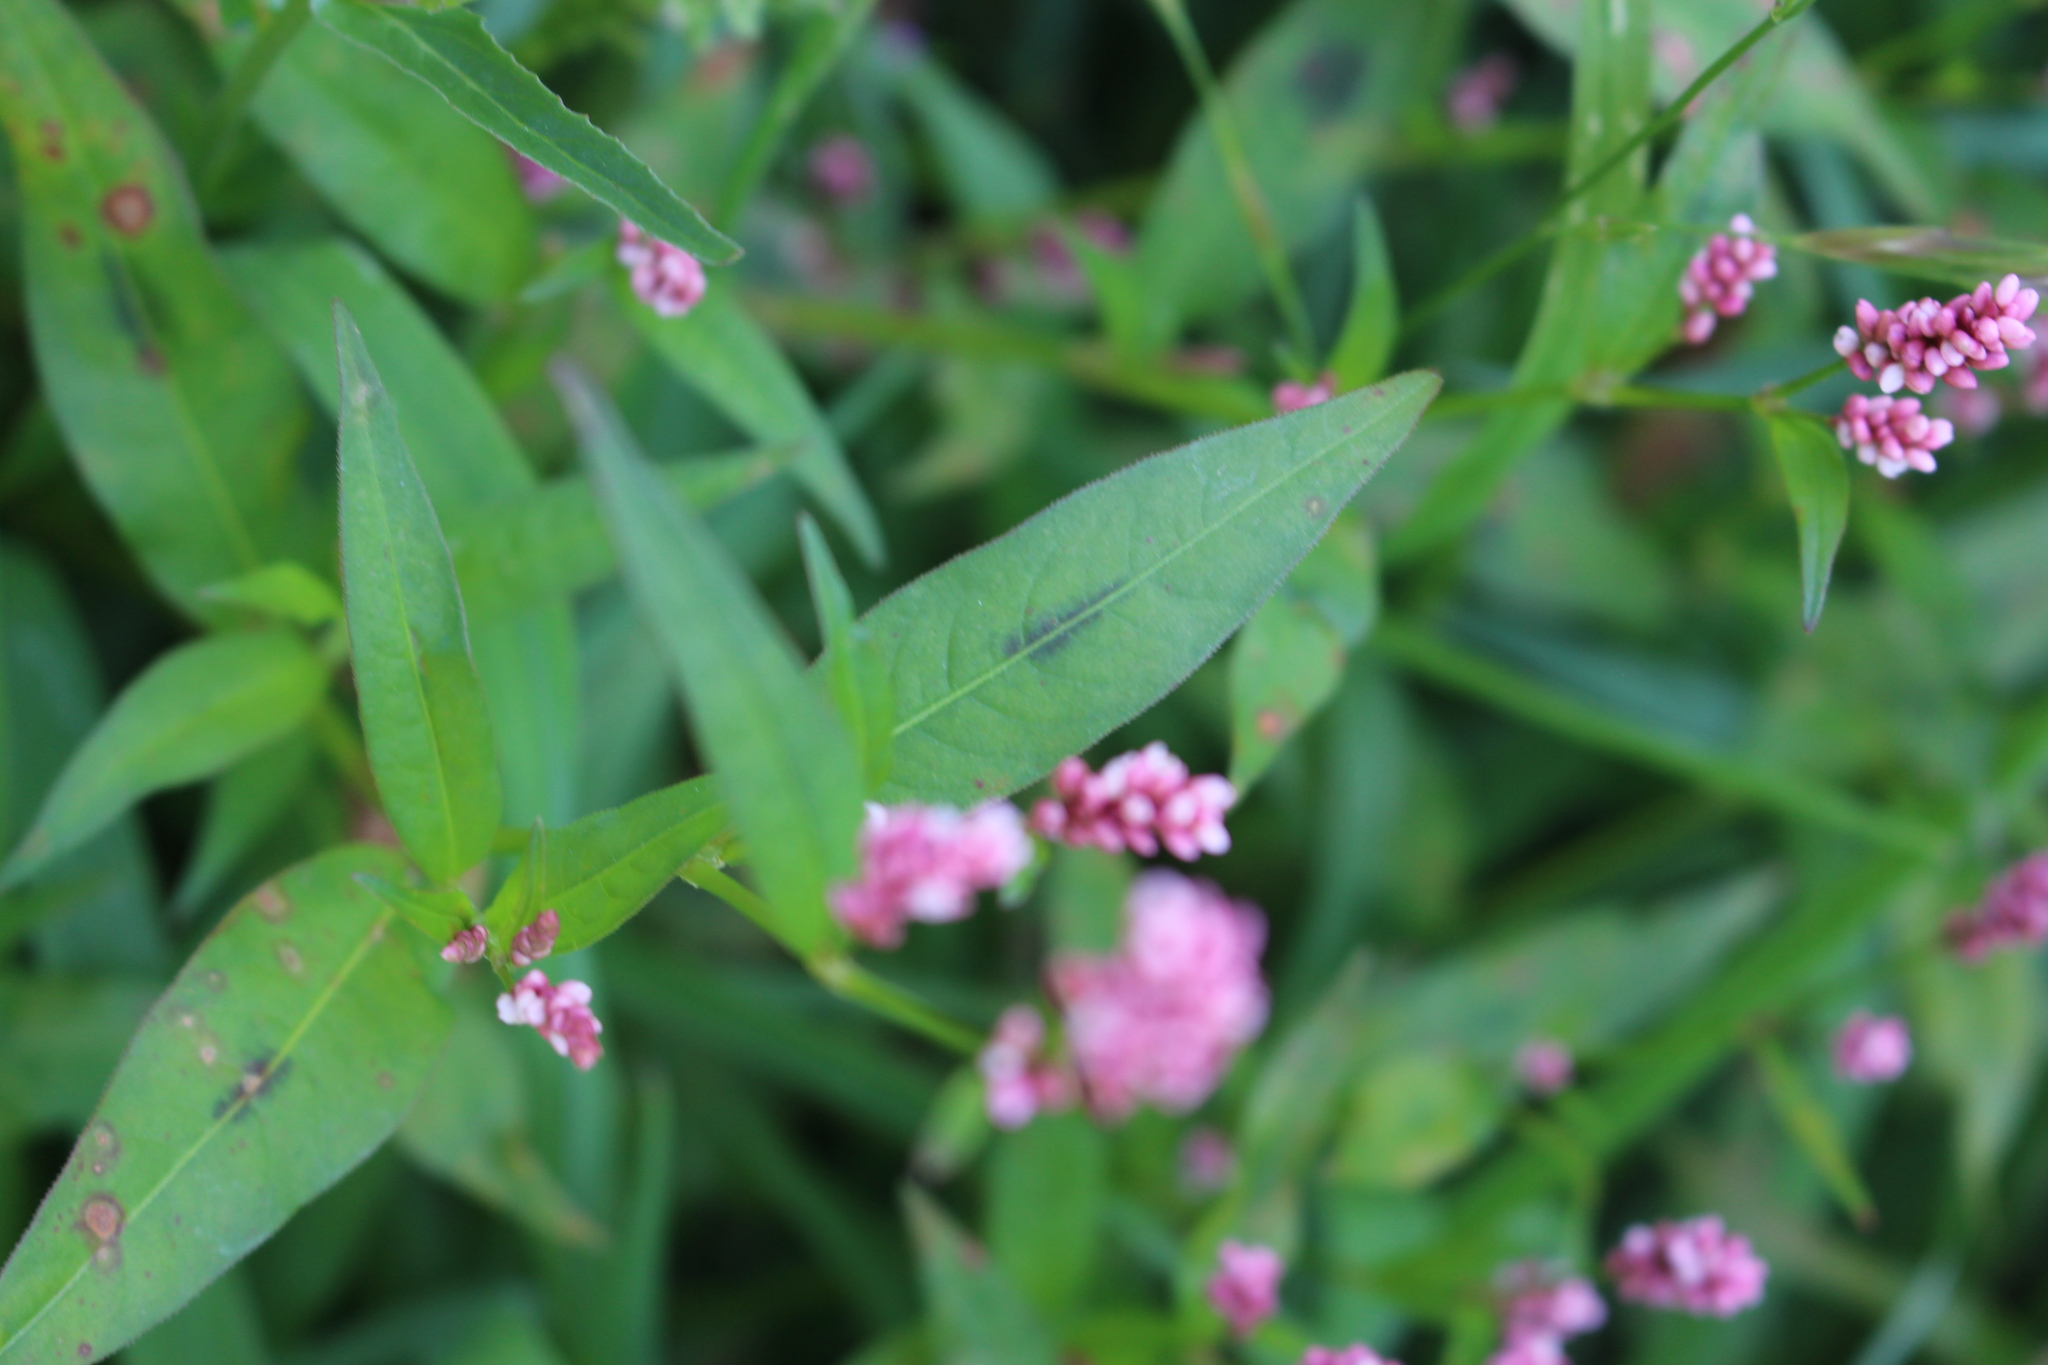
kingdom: Plantae
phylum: Tracheophyta
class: Magnoliopsida
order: Caryophyllales
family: Polygonaceae
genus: Persicaria
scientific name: Persicaria maculosa
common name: Redshank
